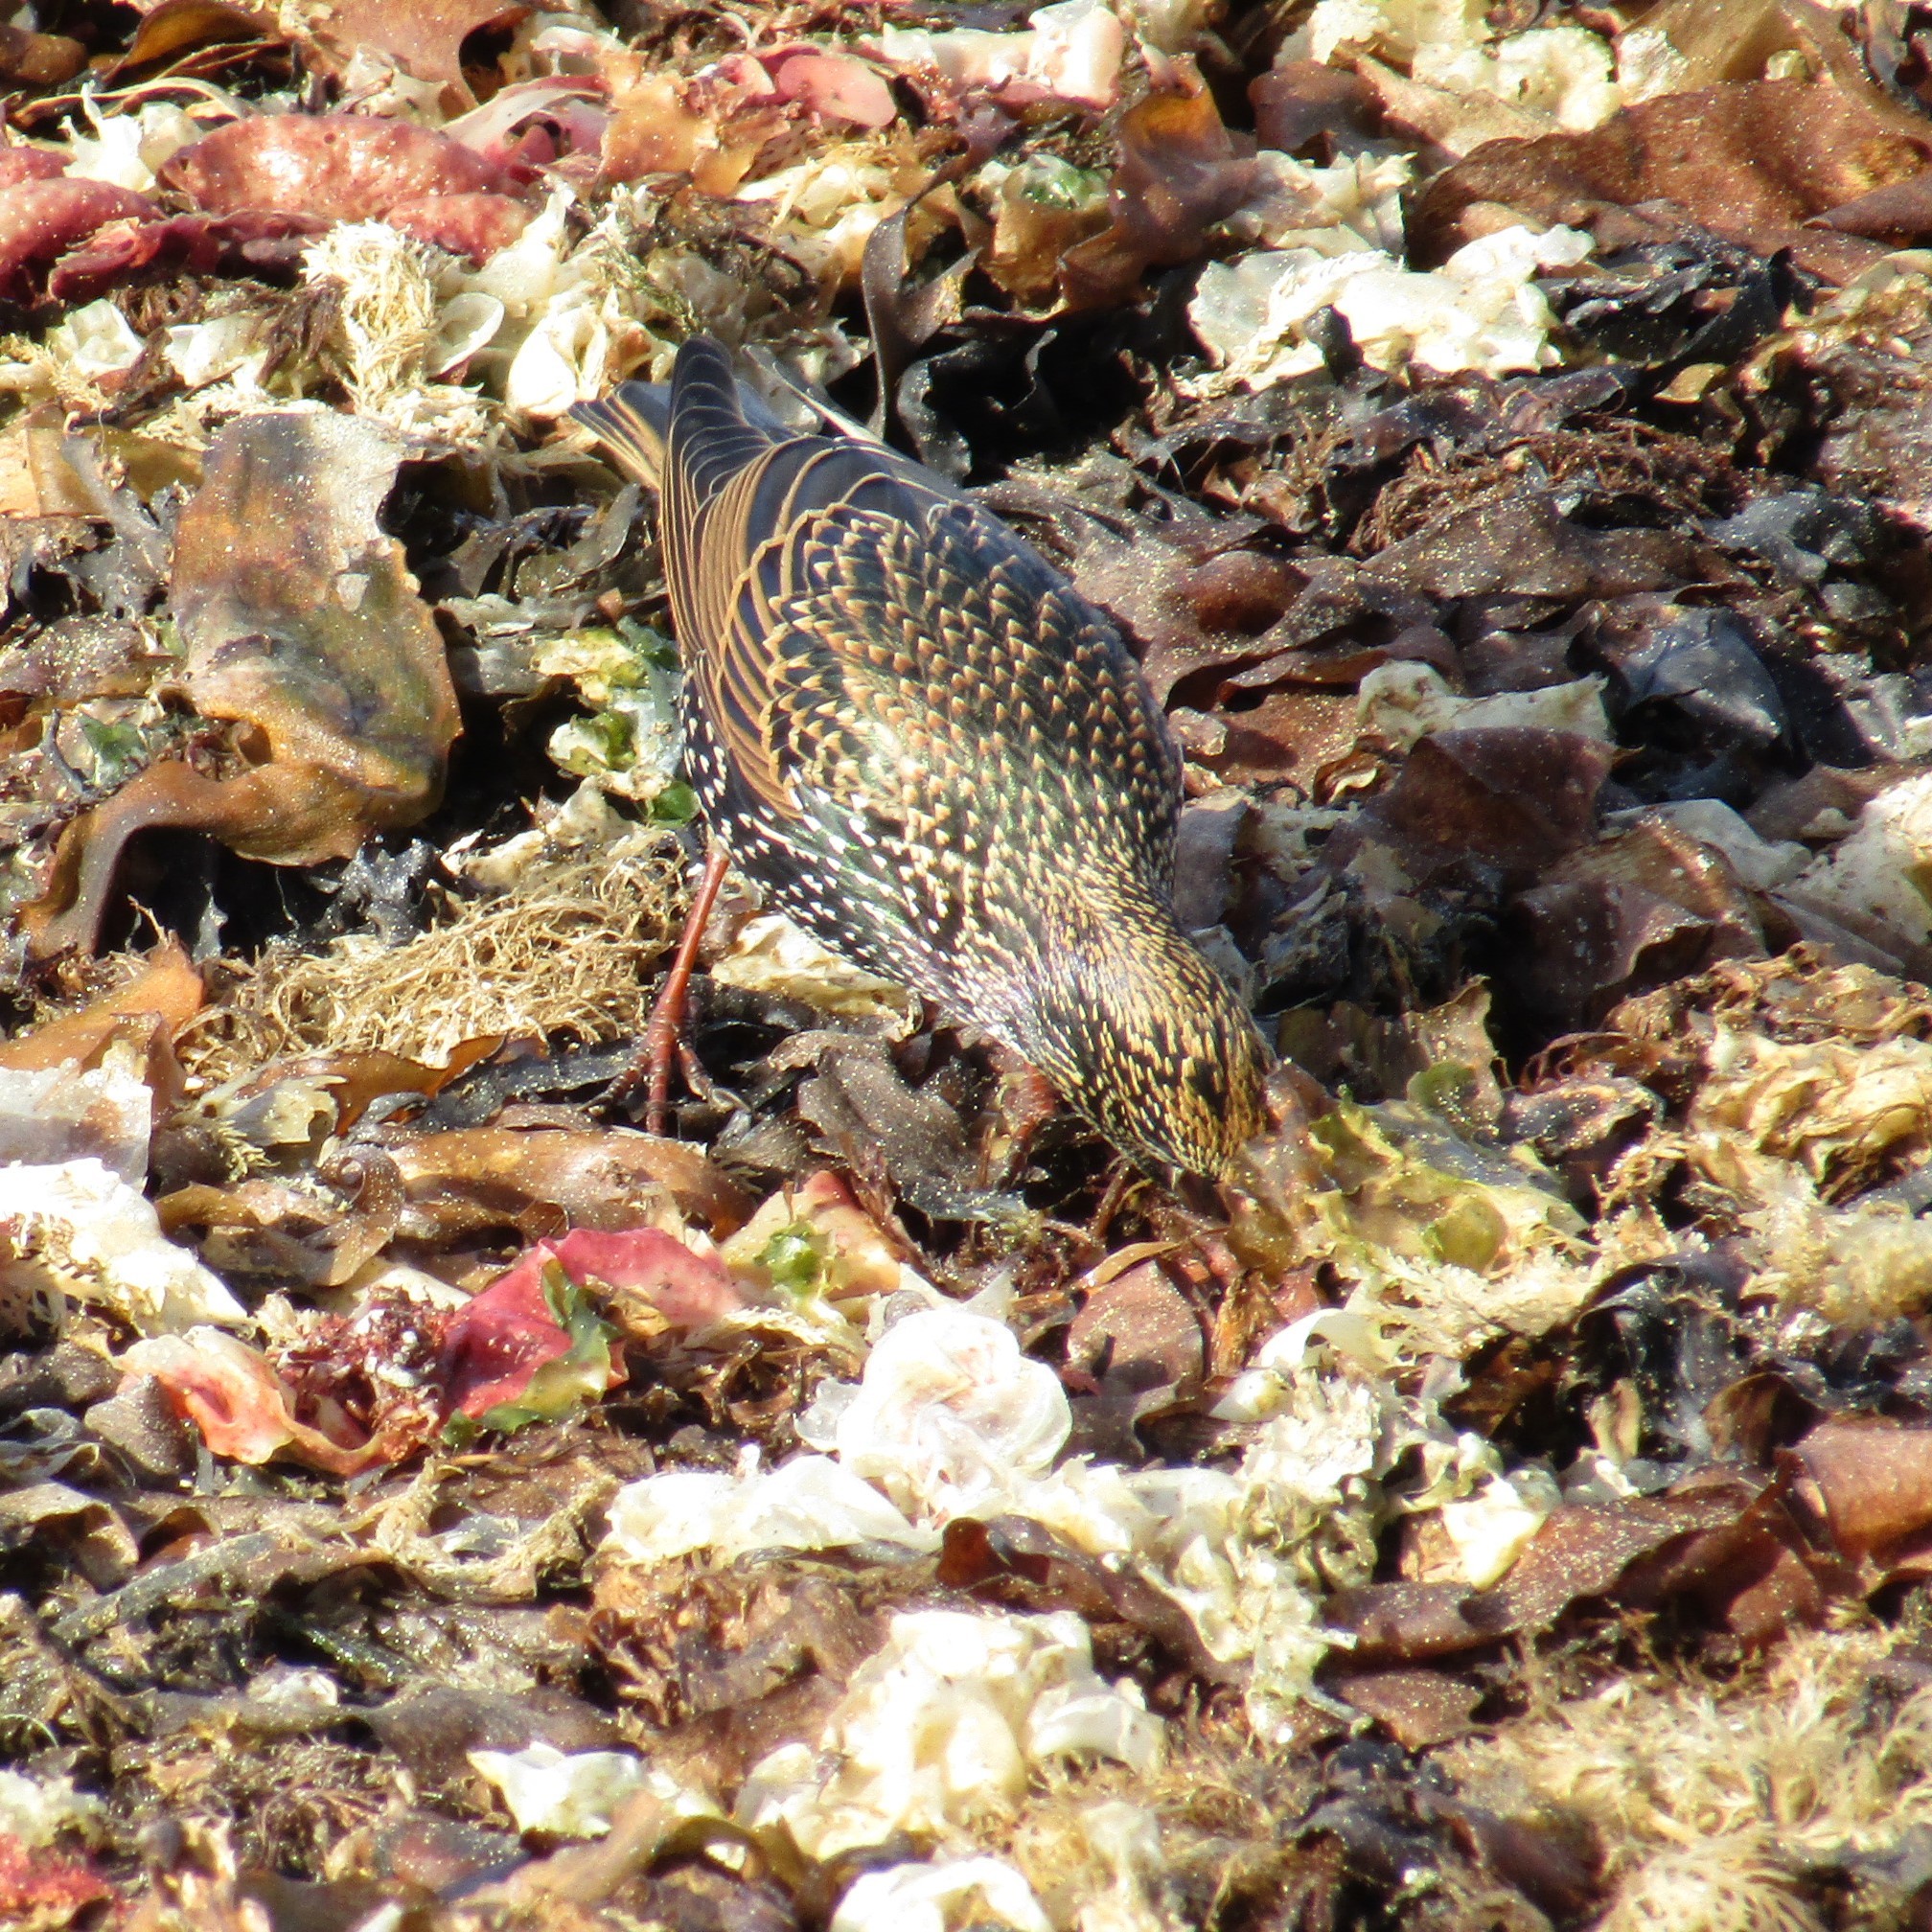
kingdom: Animalia
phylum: Chordata
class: Aves
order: Passeriformes
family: Sturnidae
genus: Sturnus
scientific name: Sturnus vulgaris
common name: Common starling
